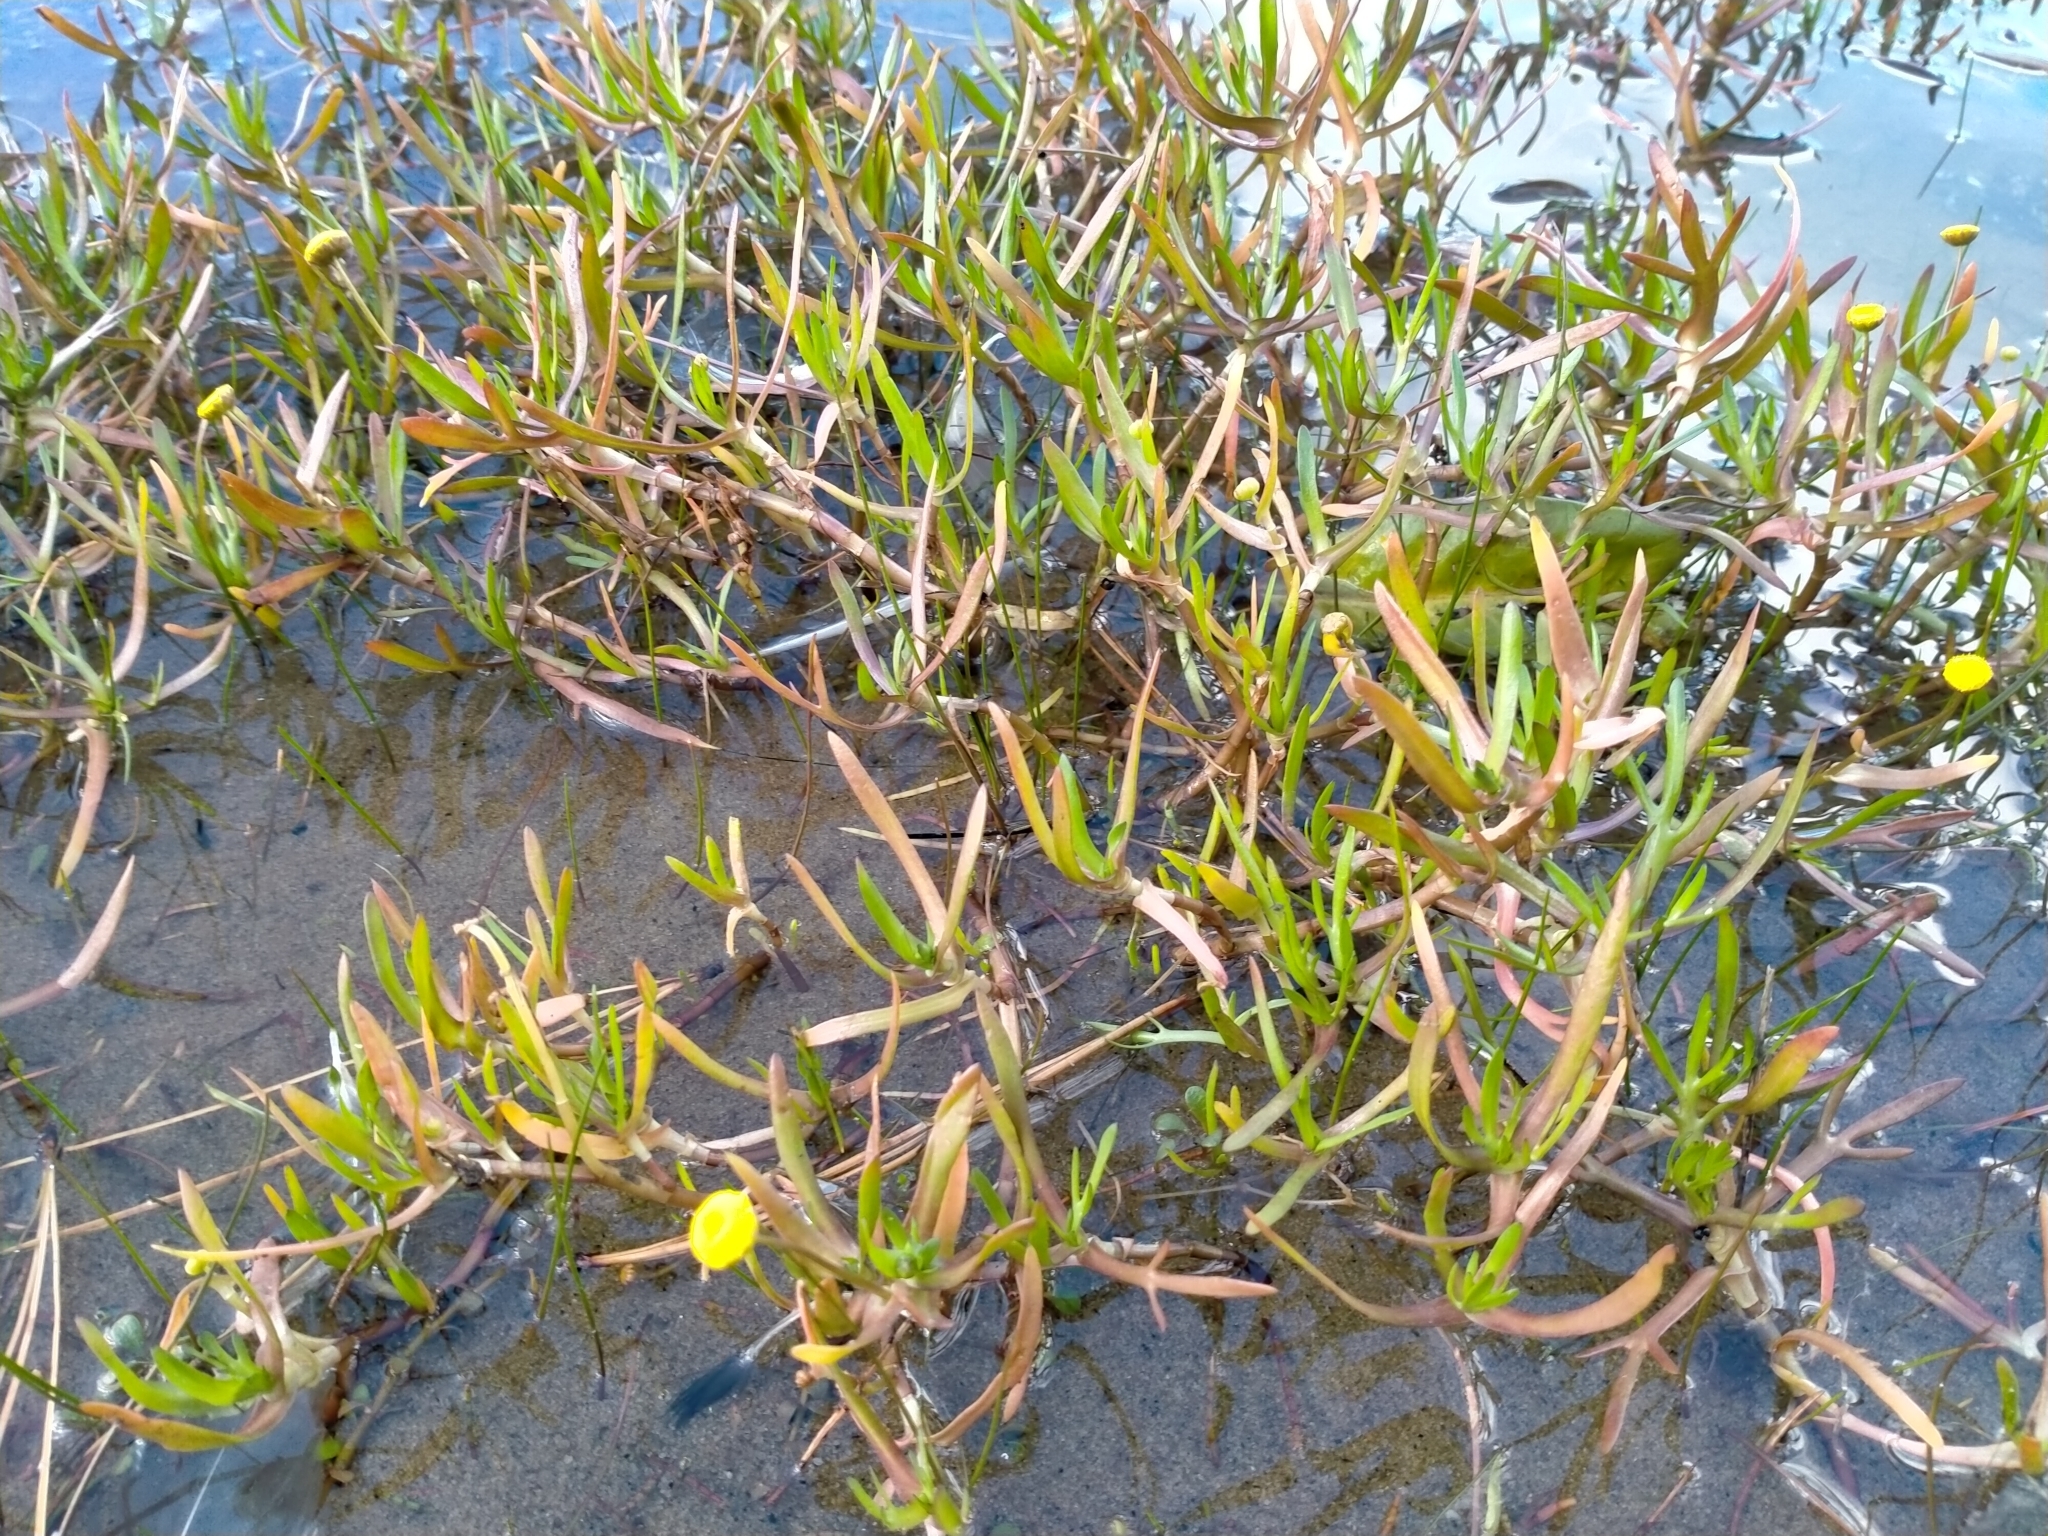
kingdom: Plantae
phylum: Tracheophyta
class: Magnoliopsida
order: Asterales
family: Asteraceae
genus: Cotula
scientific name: Cotula coronopifolia
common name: Buttonweed
